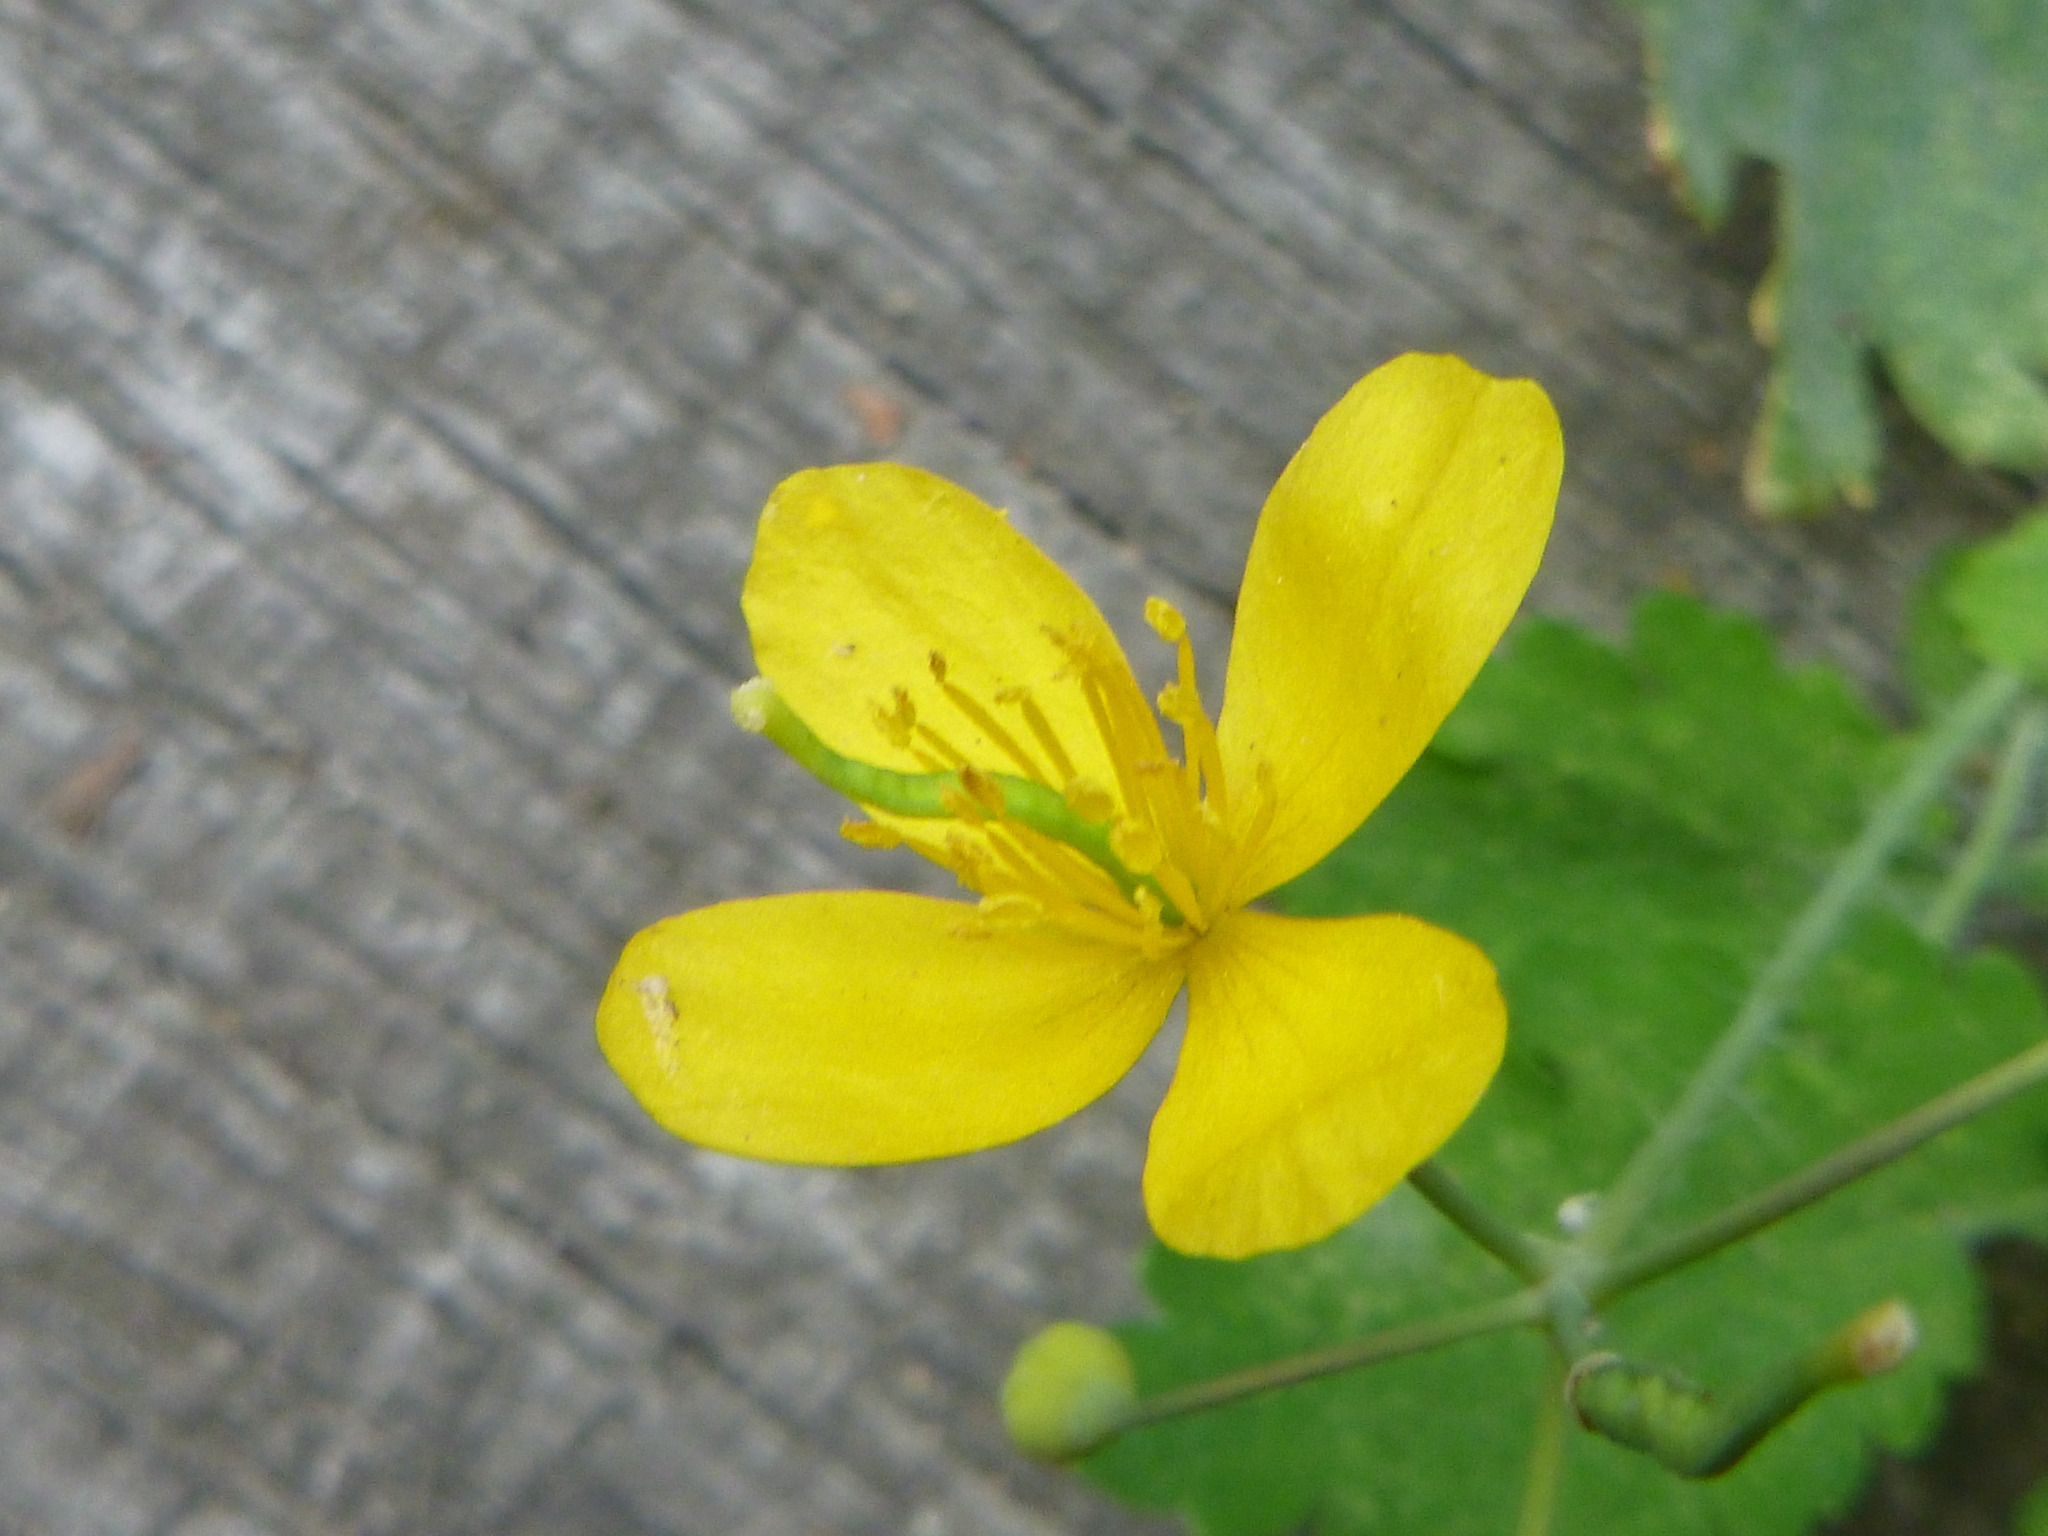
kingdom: Plantae
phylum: Tracheophyta
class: Magnoliopsida
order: Ranunculales
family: Papaveraceae
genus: Chelidonium
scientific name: Chelidonium majus
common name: Greater celandine
